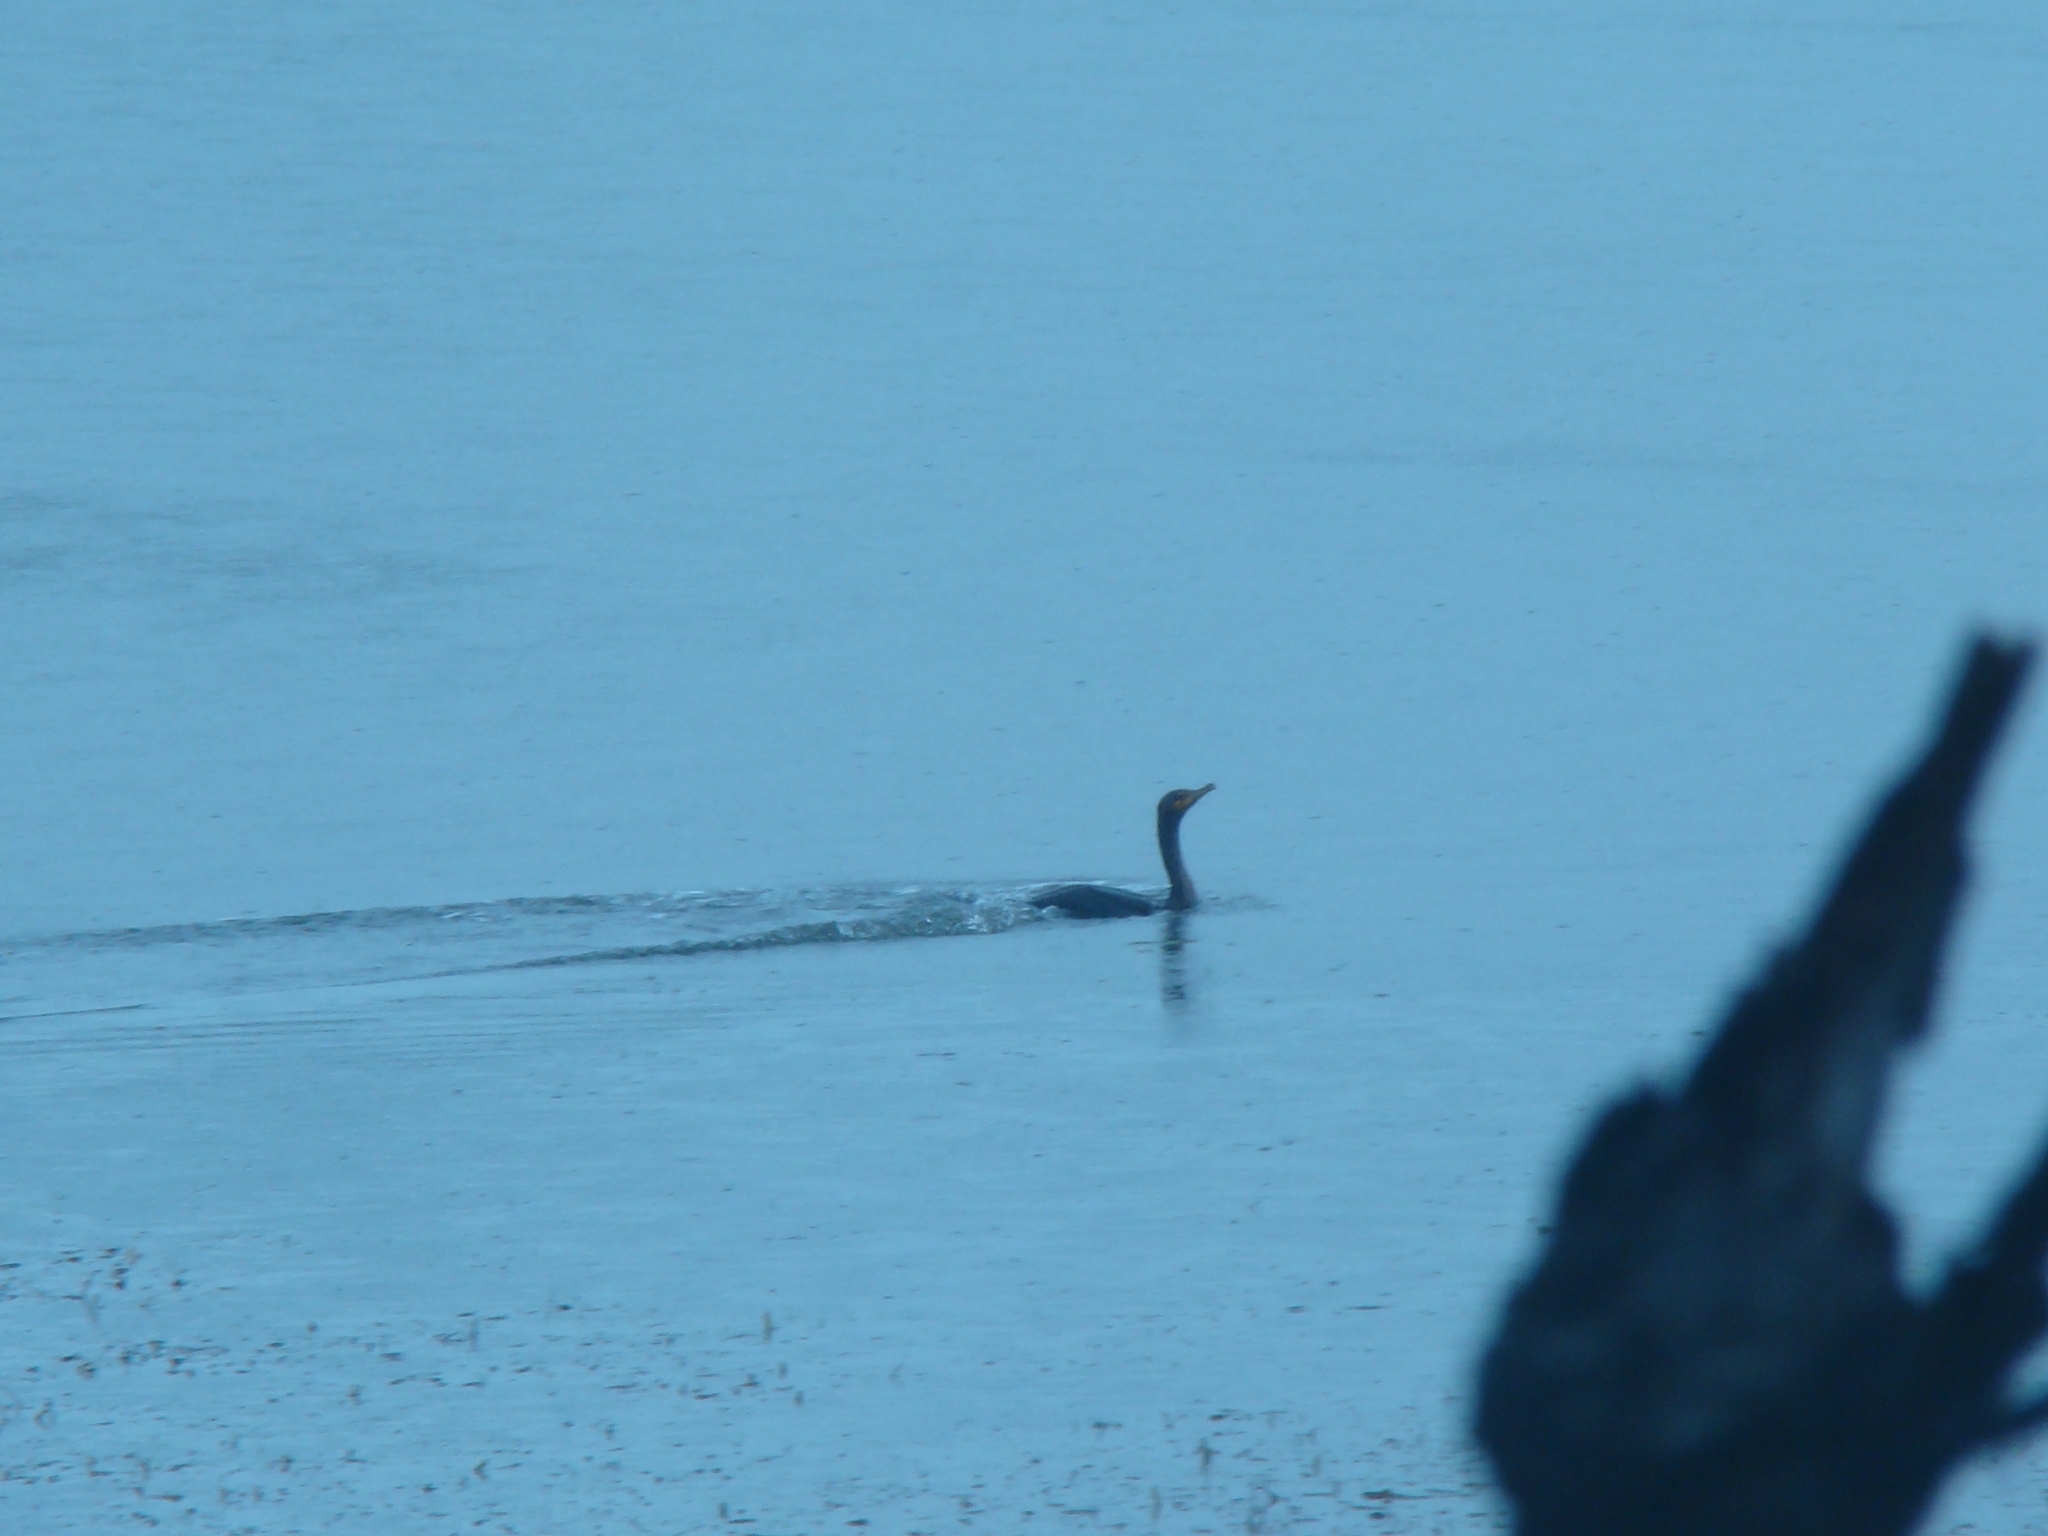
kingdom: Animalia
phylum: Chordata
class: Aves
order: Suliformes
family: Phalacrocoracidae
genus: Phalacrocorax
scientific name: Phalacrocorax auritus
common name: Double-crested cormorant
